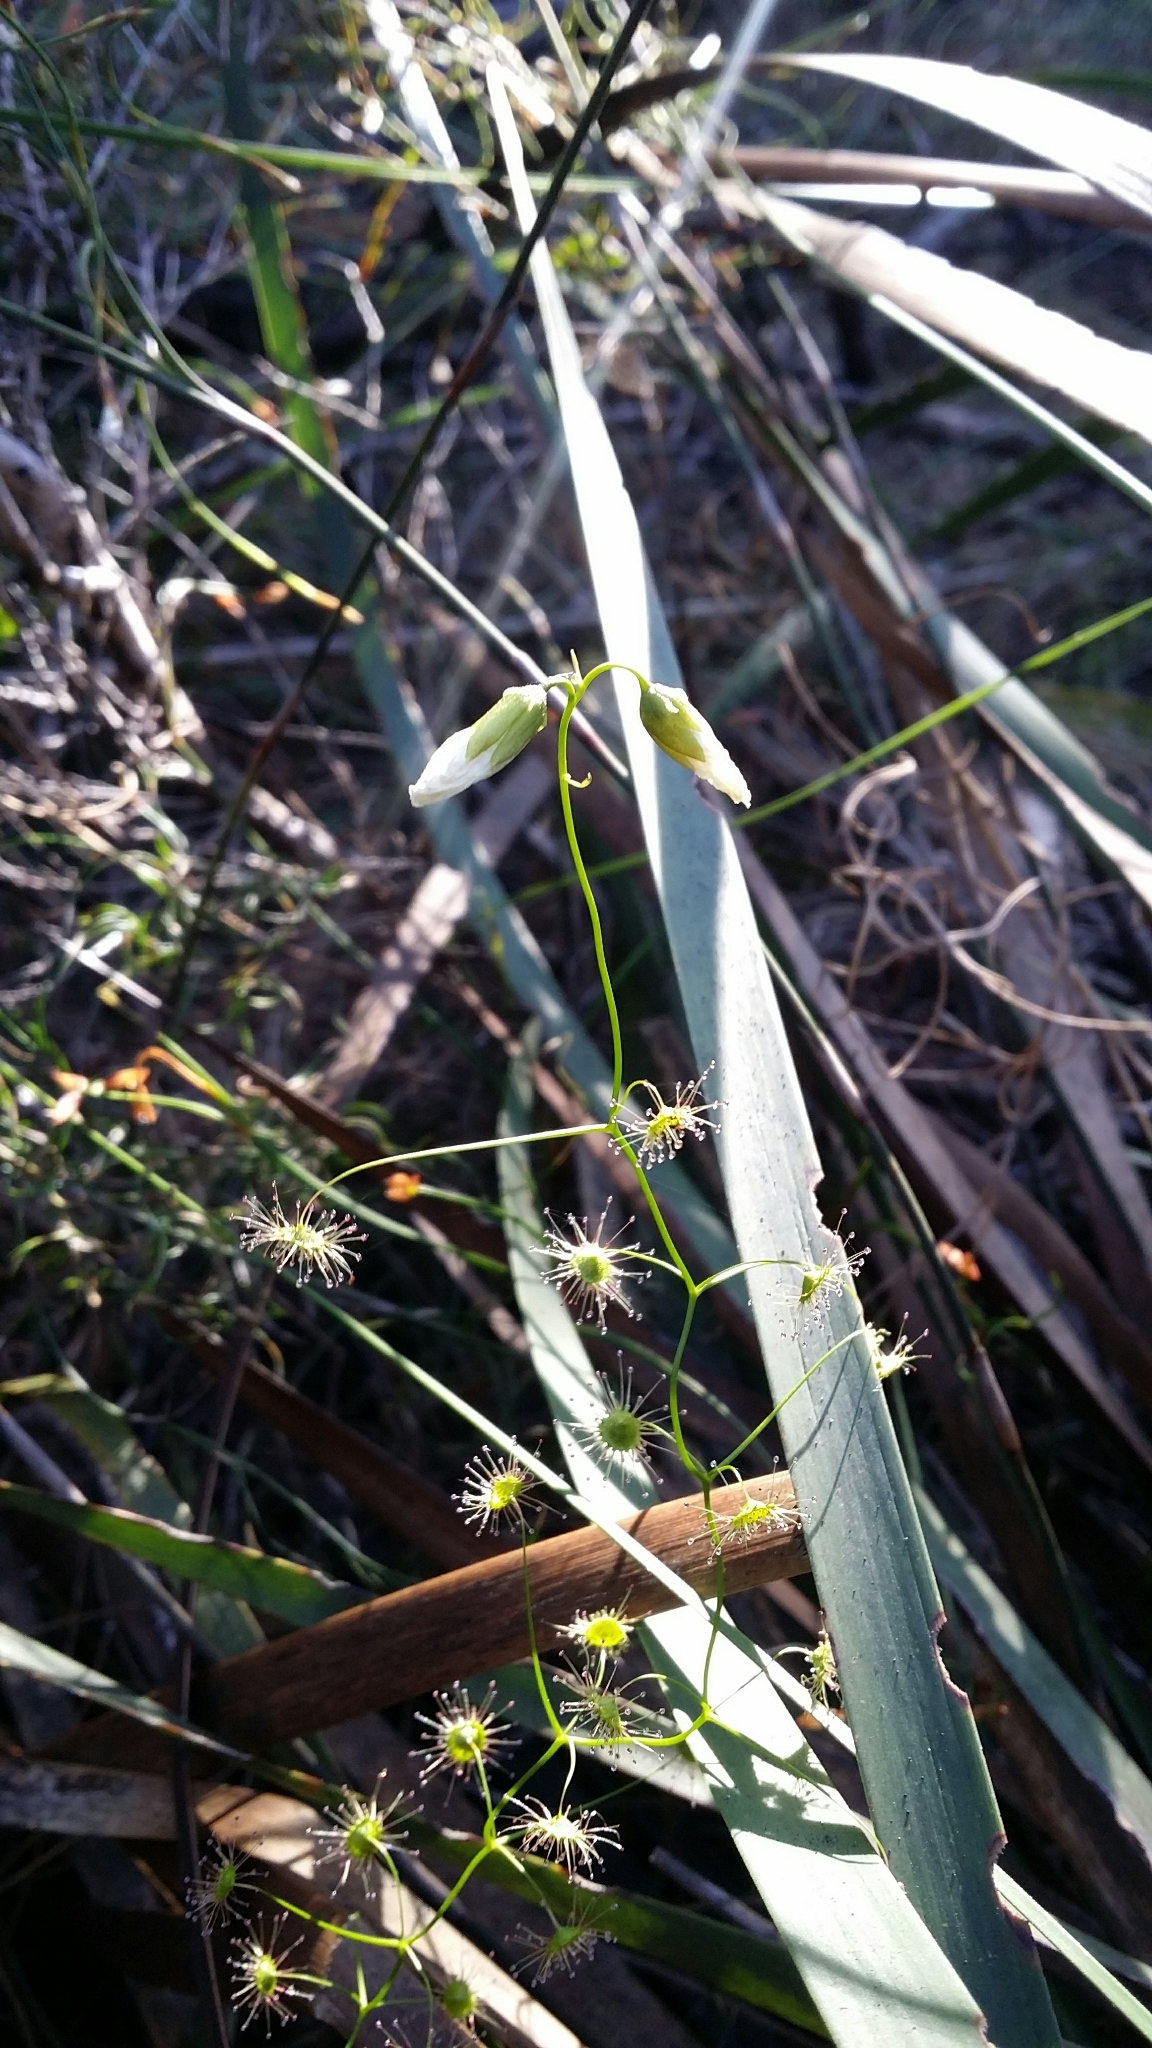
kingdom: Plantae
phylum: Tracheophyta
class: Magnoliopsida
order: Caryophyllales
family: Droseraceae
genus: Drosera
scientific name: Drosera pallida
